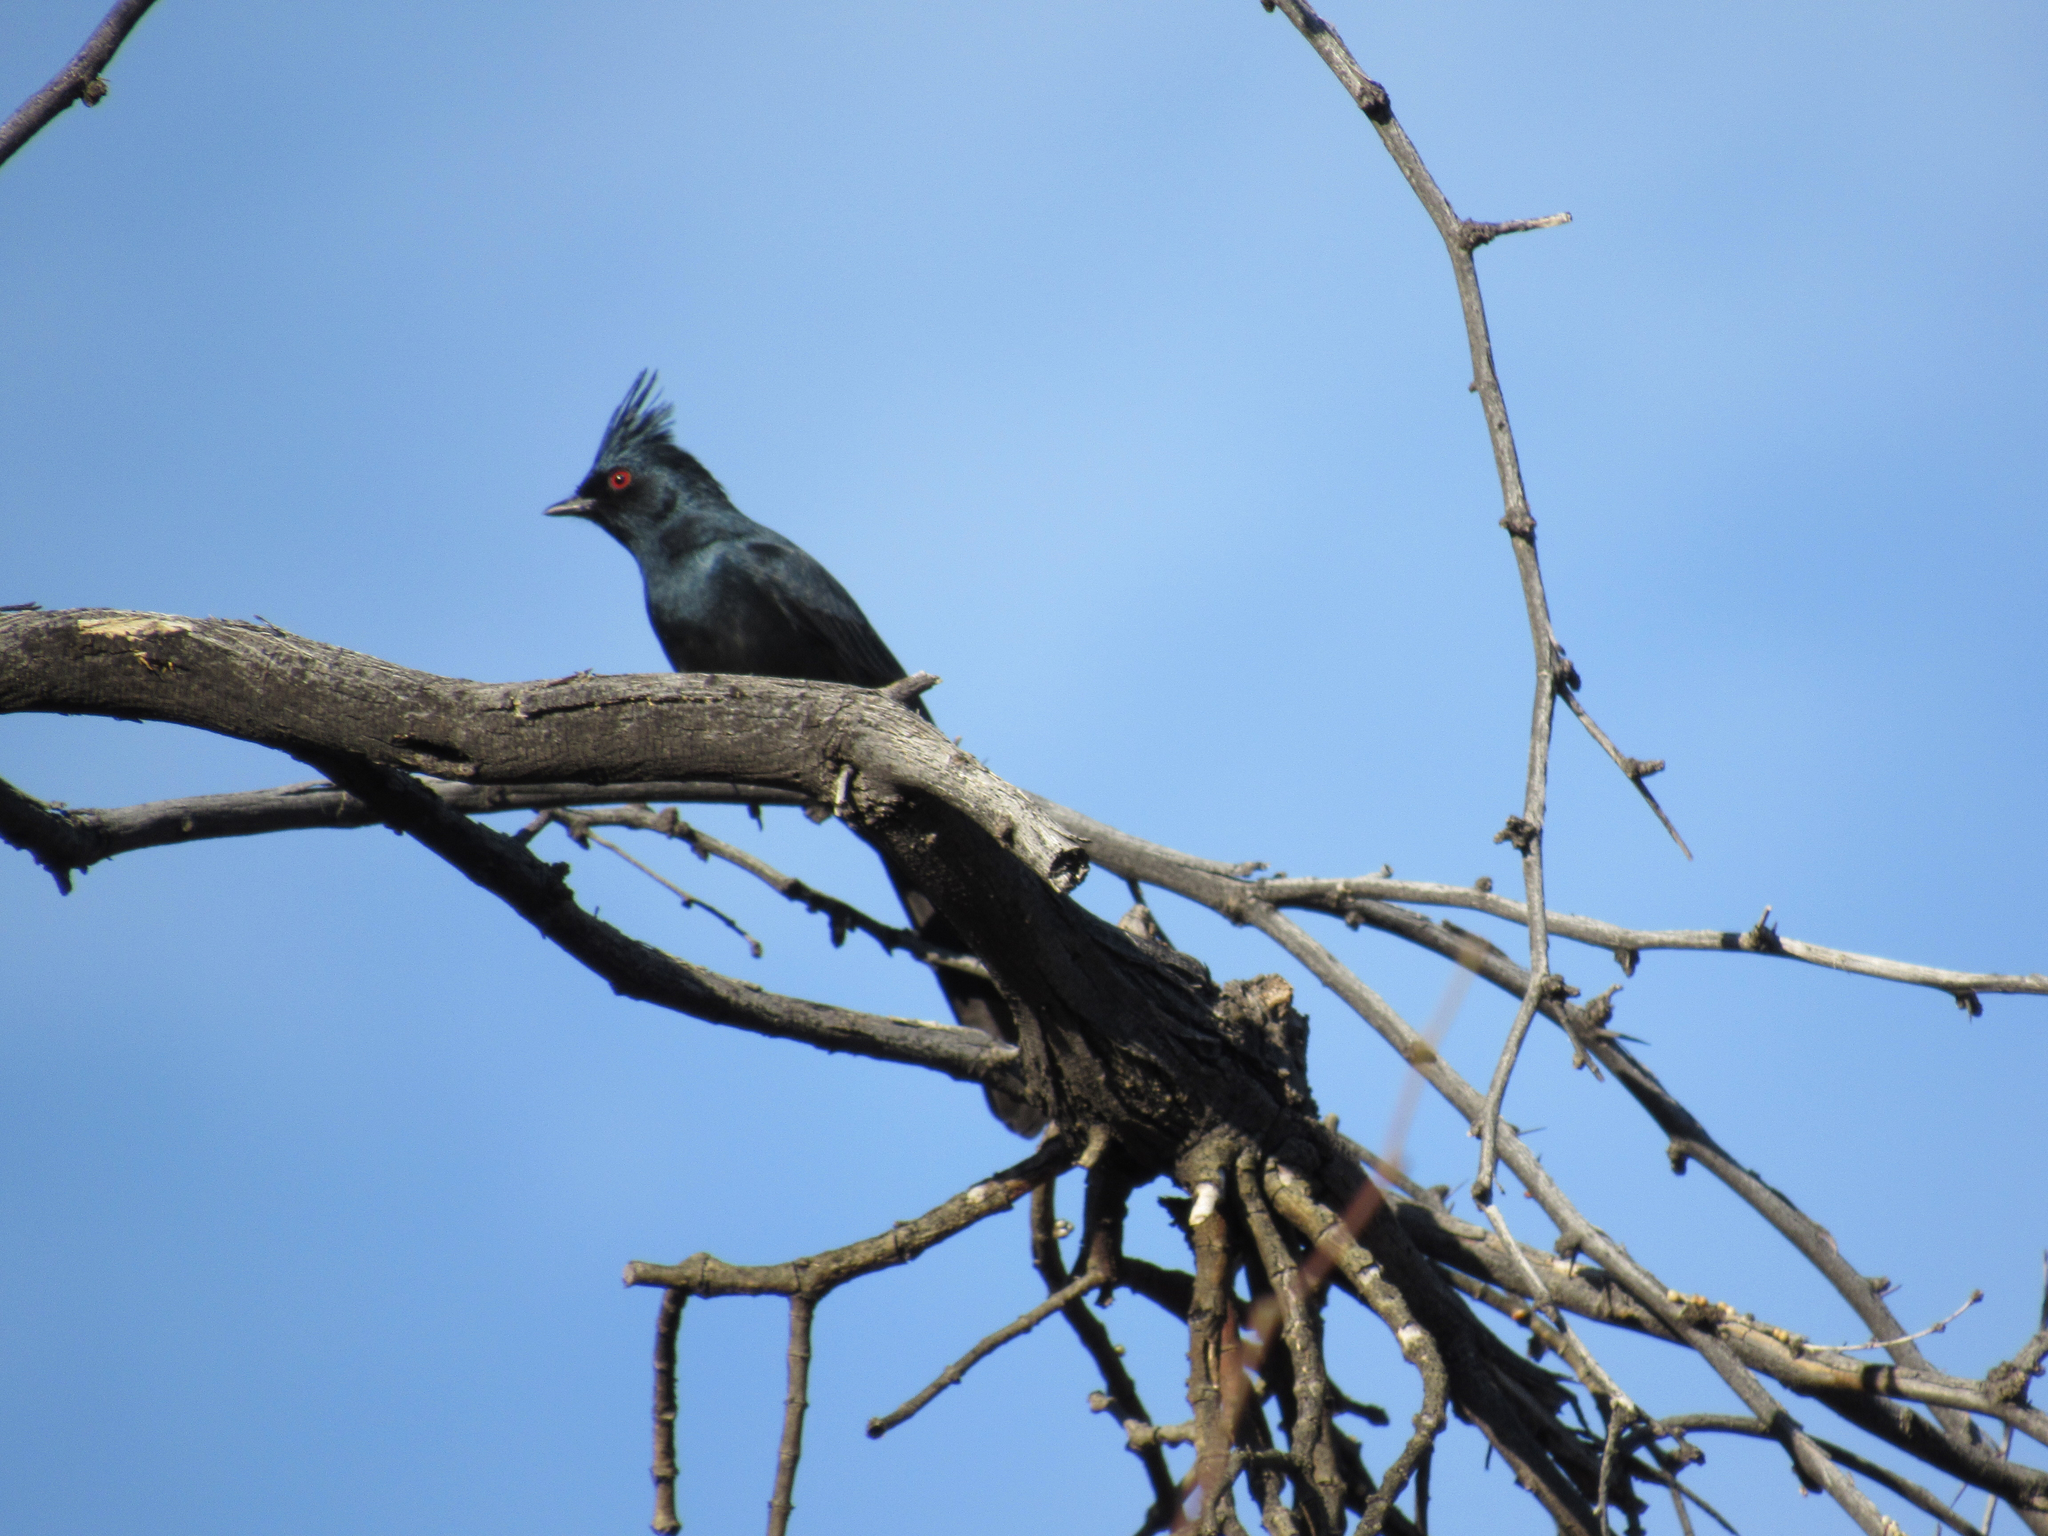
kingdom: Animalia
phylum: Chordata
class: Aves
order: Passeriformes
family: Ptilogonatidae
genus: Phainopepla
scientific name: Phainopepla nitens
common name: Phainopepla
